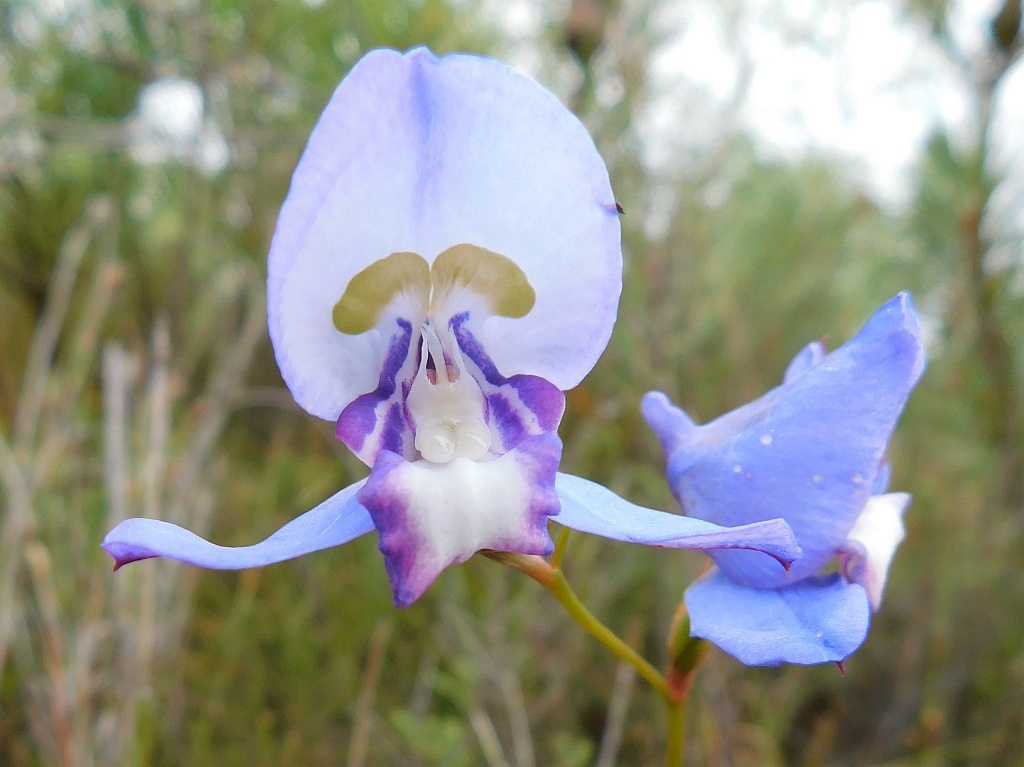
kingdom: Plantae
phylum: Tracheophyta
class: Liliopsida
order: Asparagales
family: Orchidaceae
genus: Disa
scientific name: Disa graminifolia
